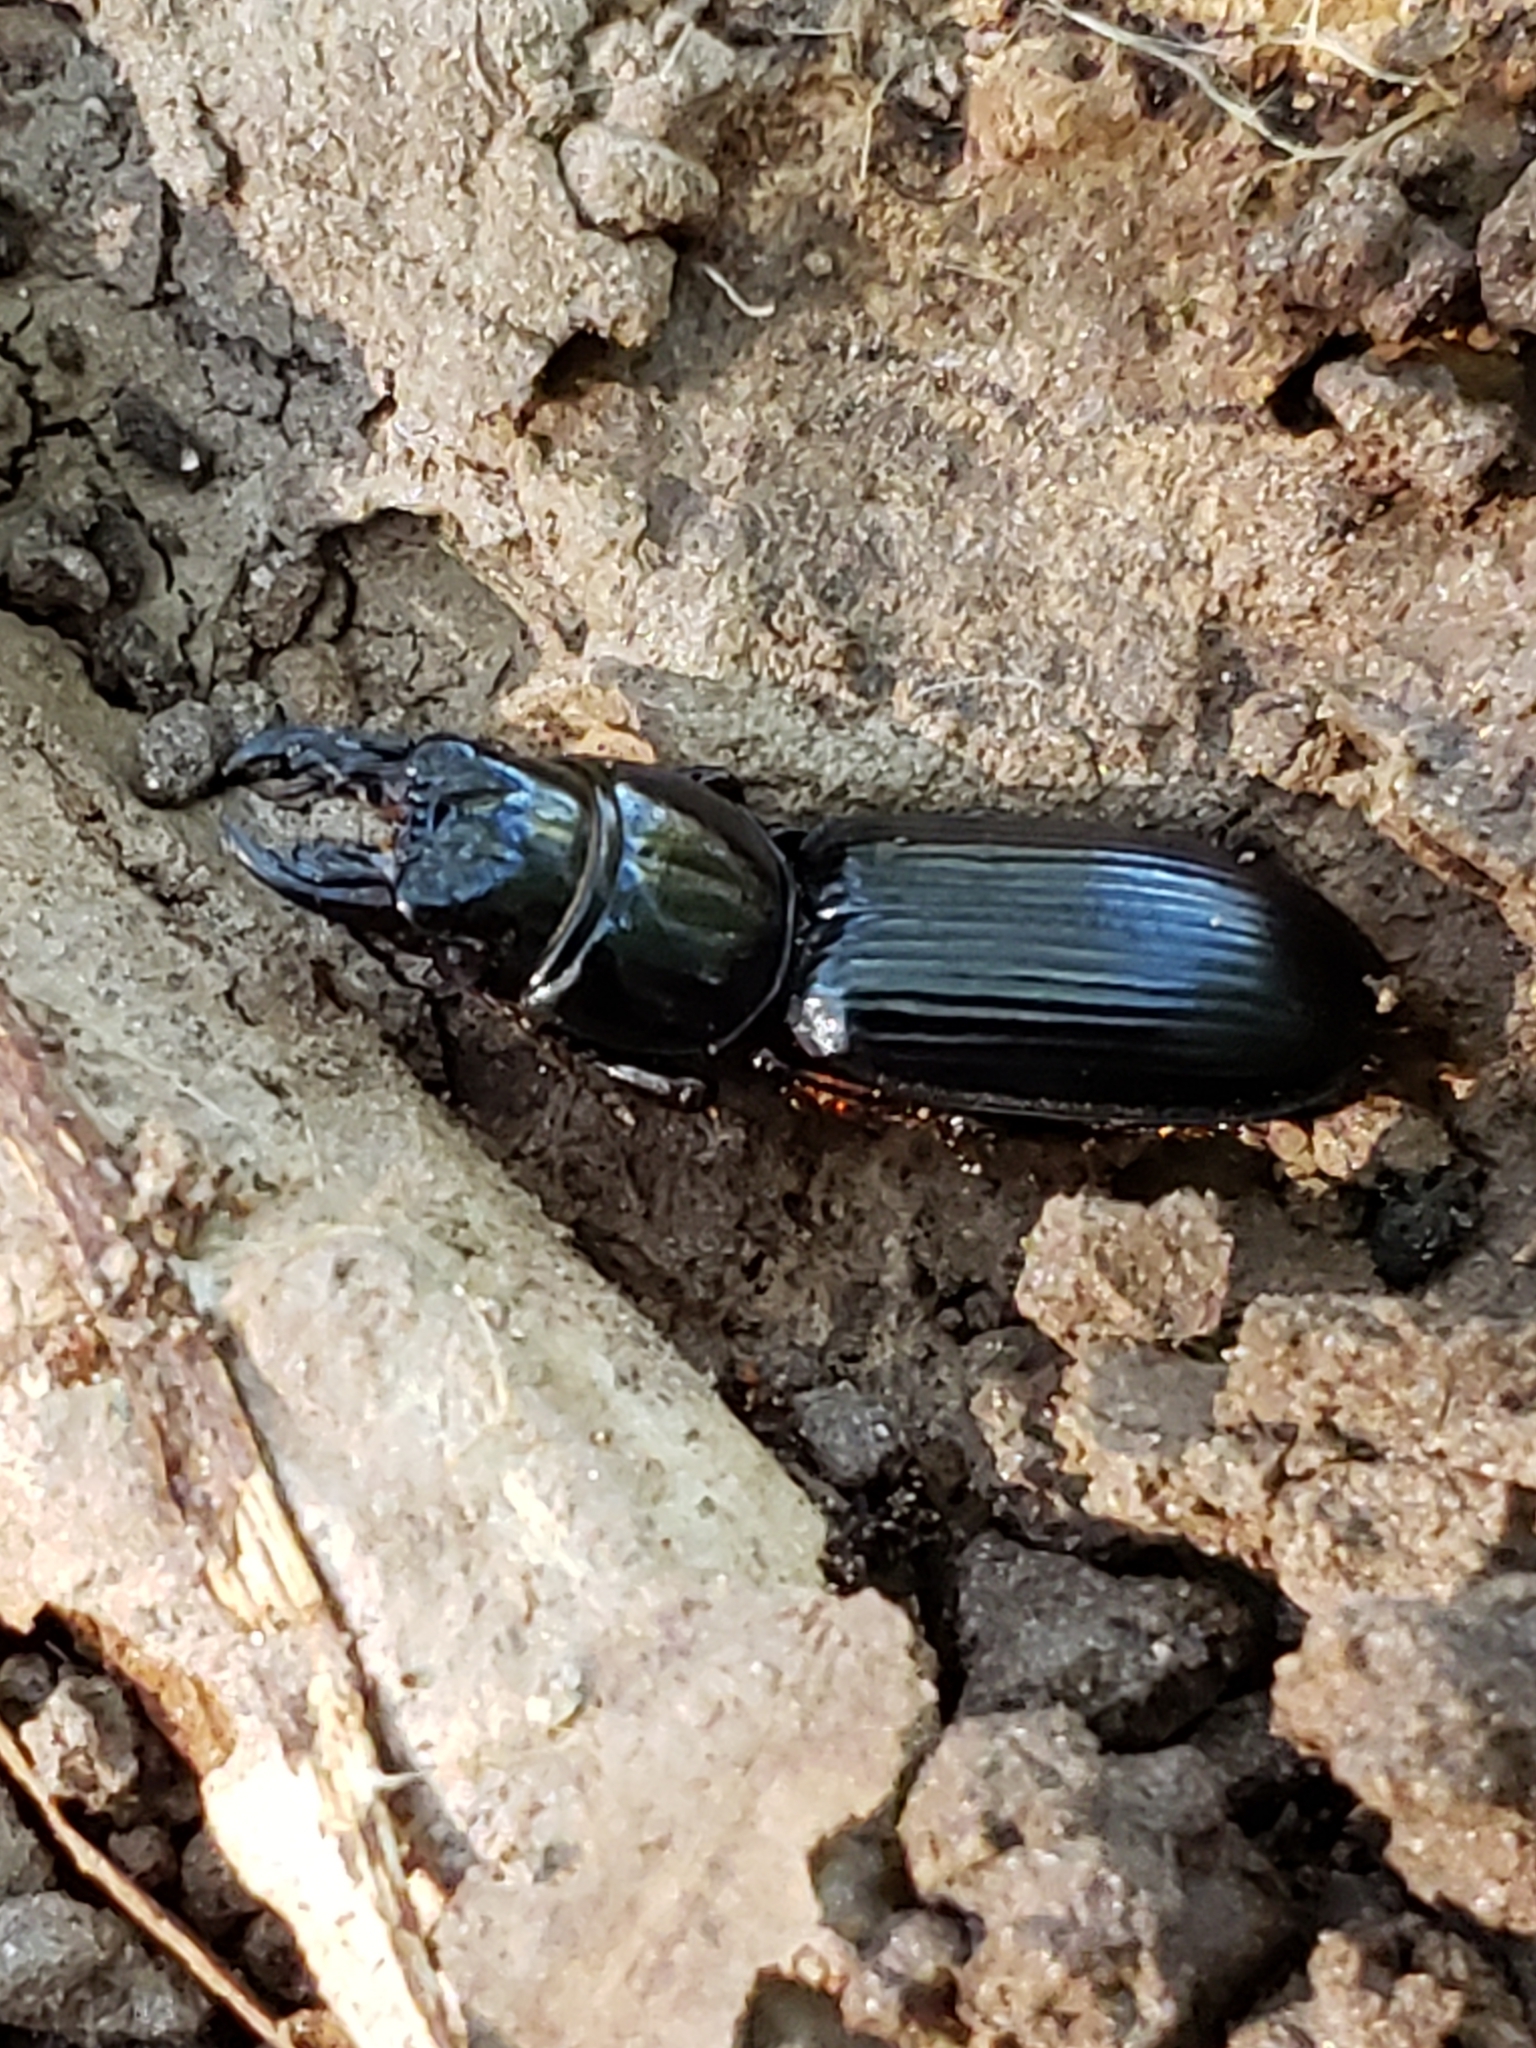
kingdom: Animalia
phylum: Arthropoda
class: Insecta
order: Coleoptera
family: Carabidae
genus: Scarites
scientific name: Scarites subterraneus
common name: Big-headed ground beetle
